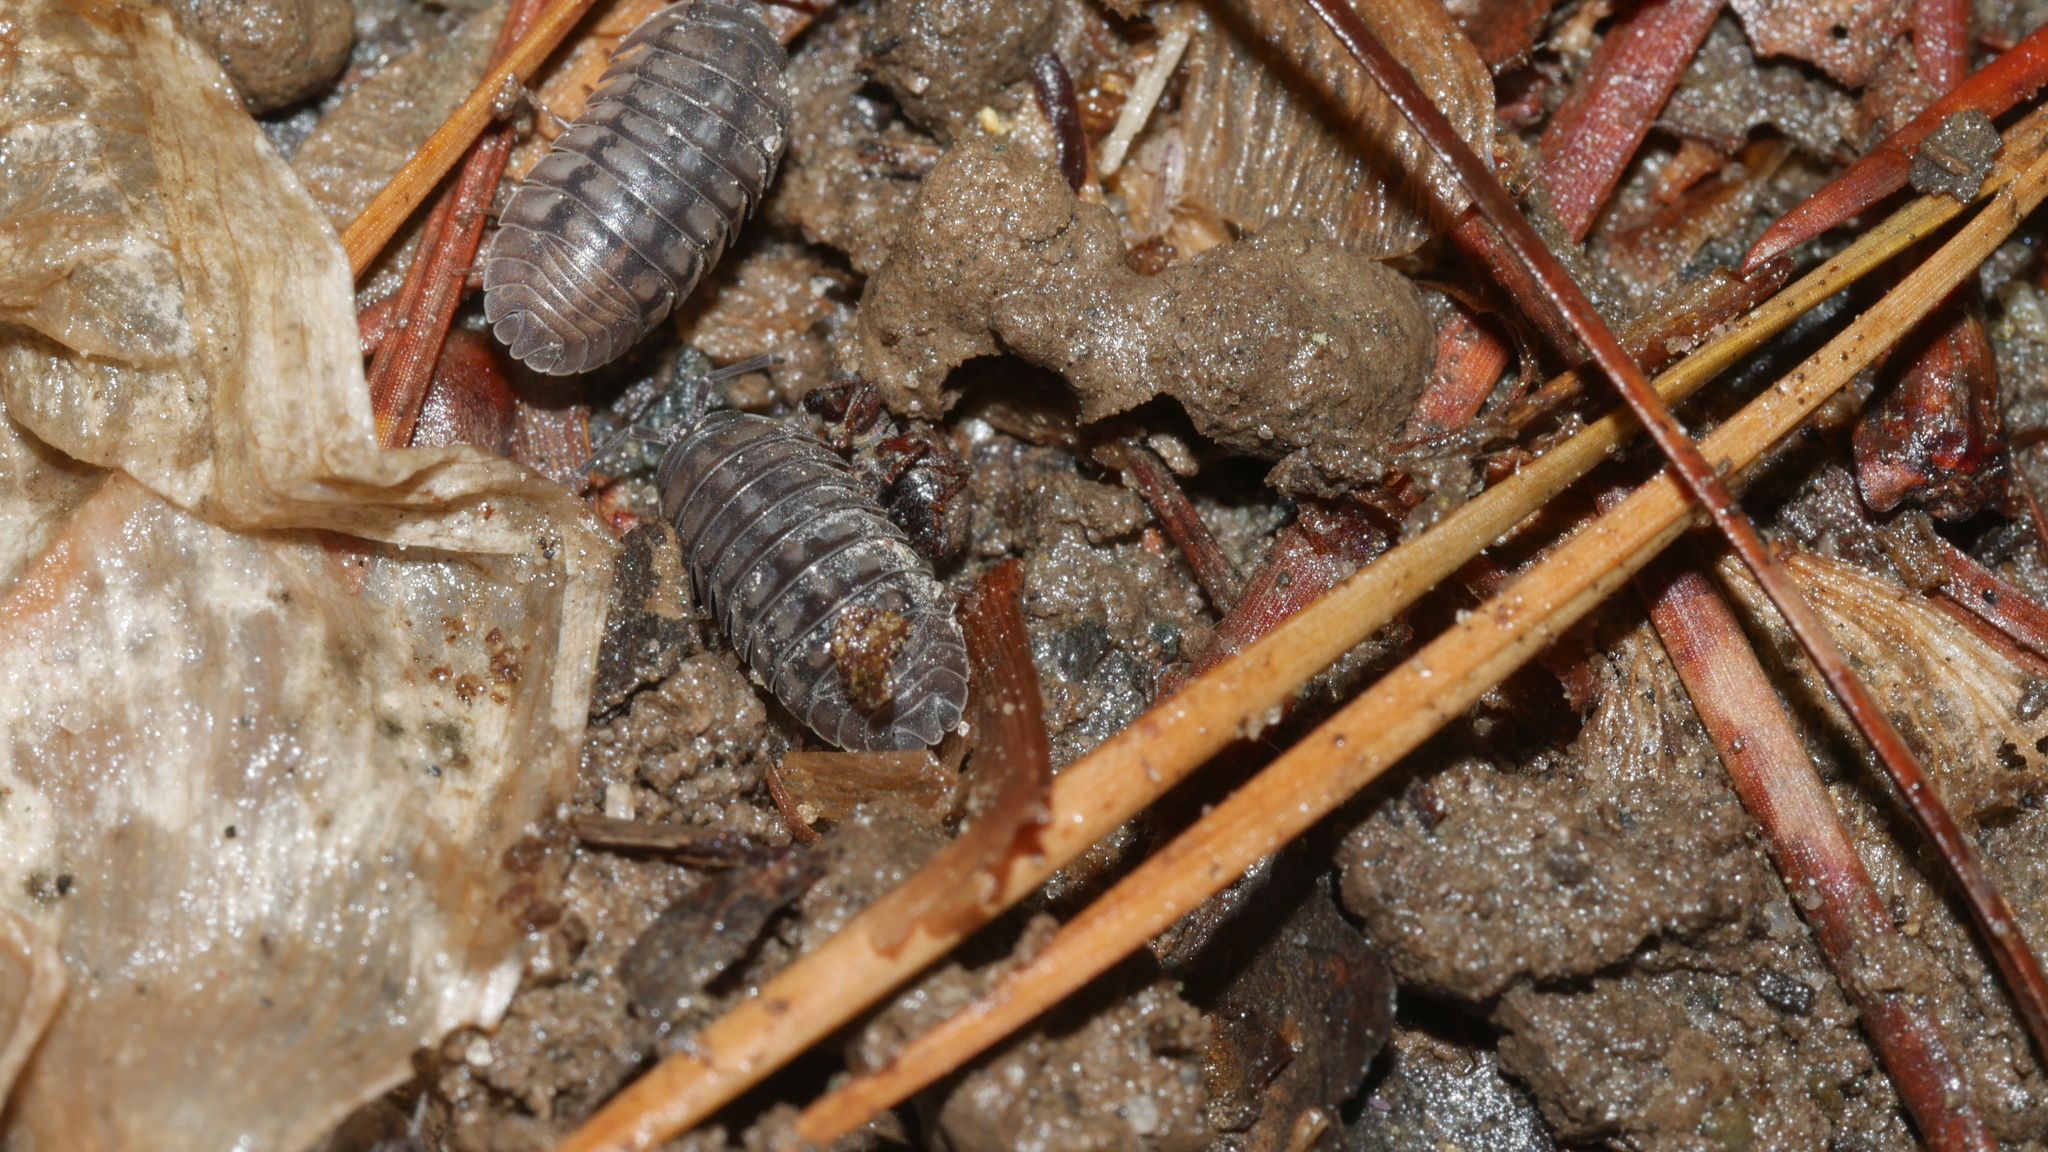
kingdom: Animalia
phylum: Arthropoda
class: Malacostraca
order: Isopoda
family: Armadillidiidae
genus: Armadillidium
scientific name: Armadillidium nasatum
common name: Isopod
